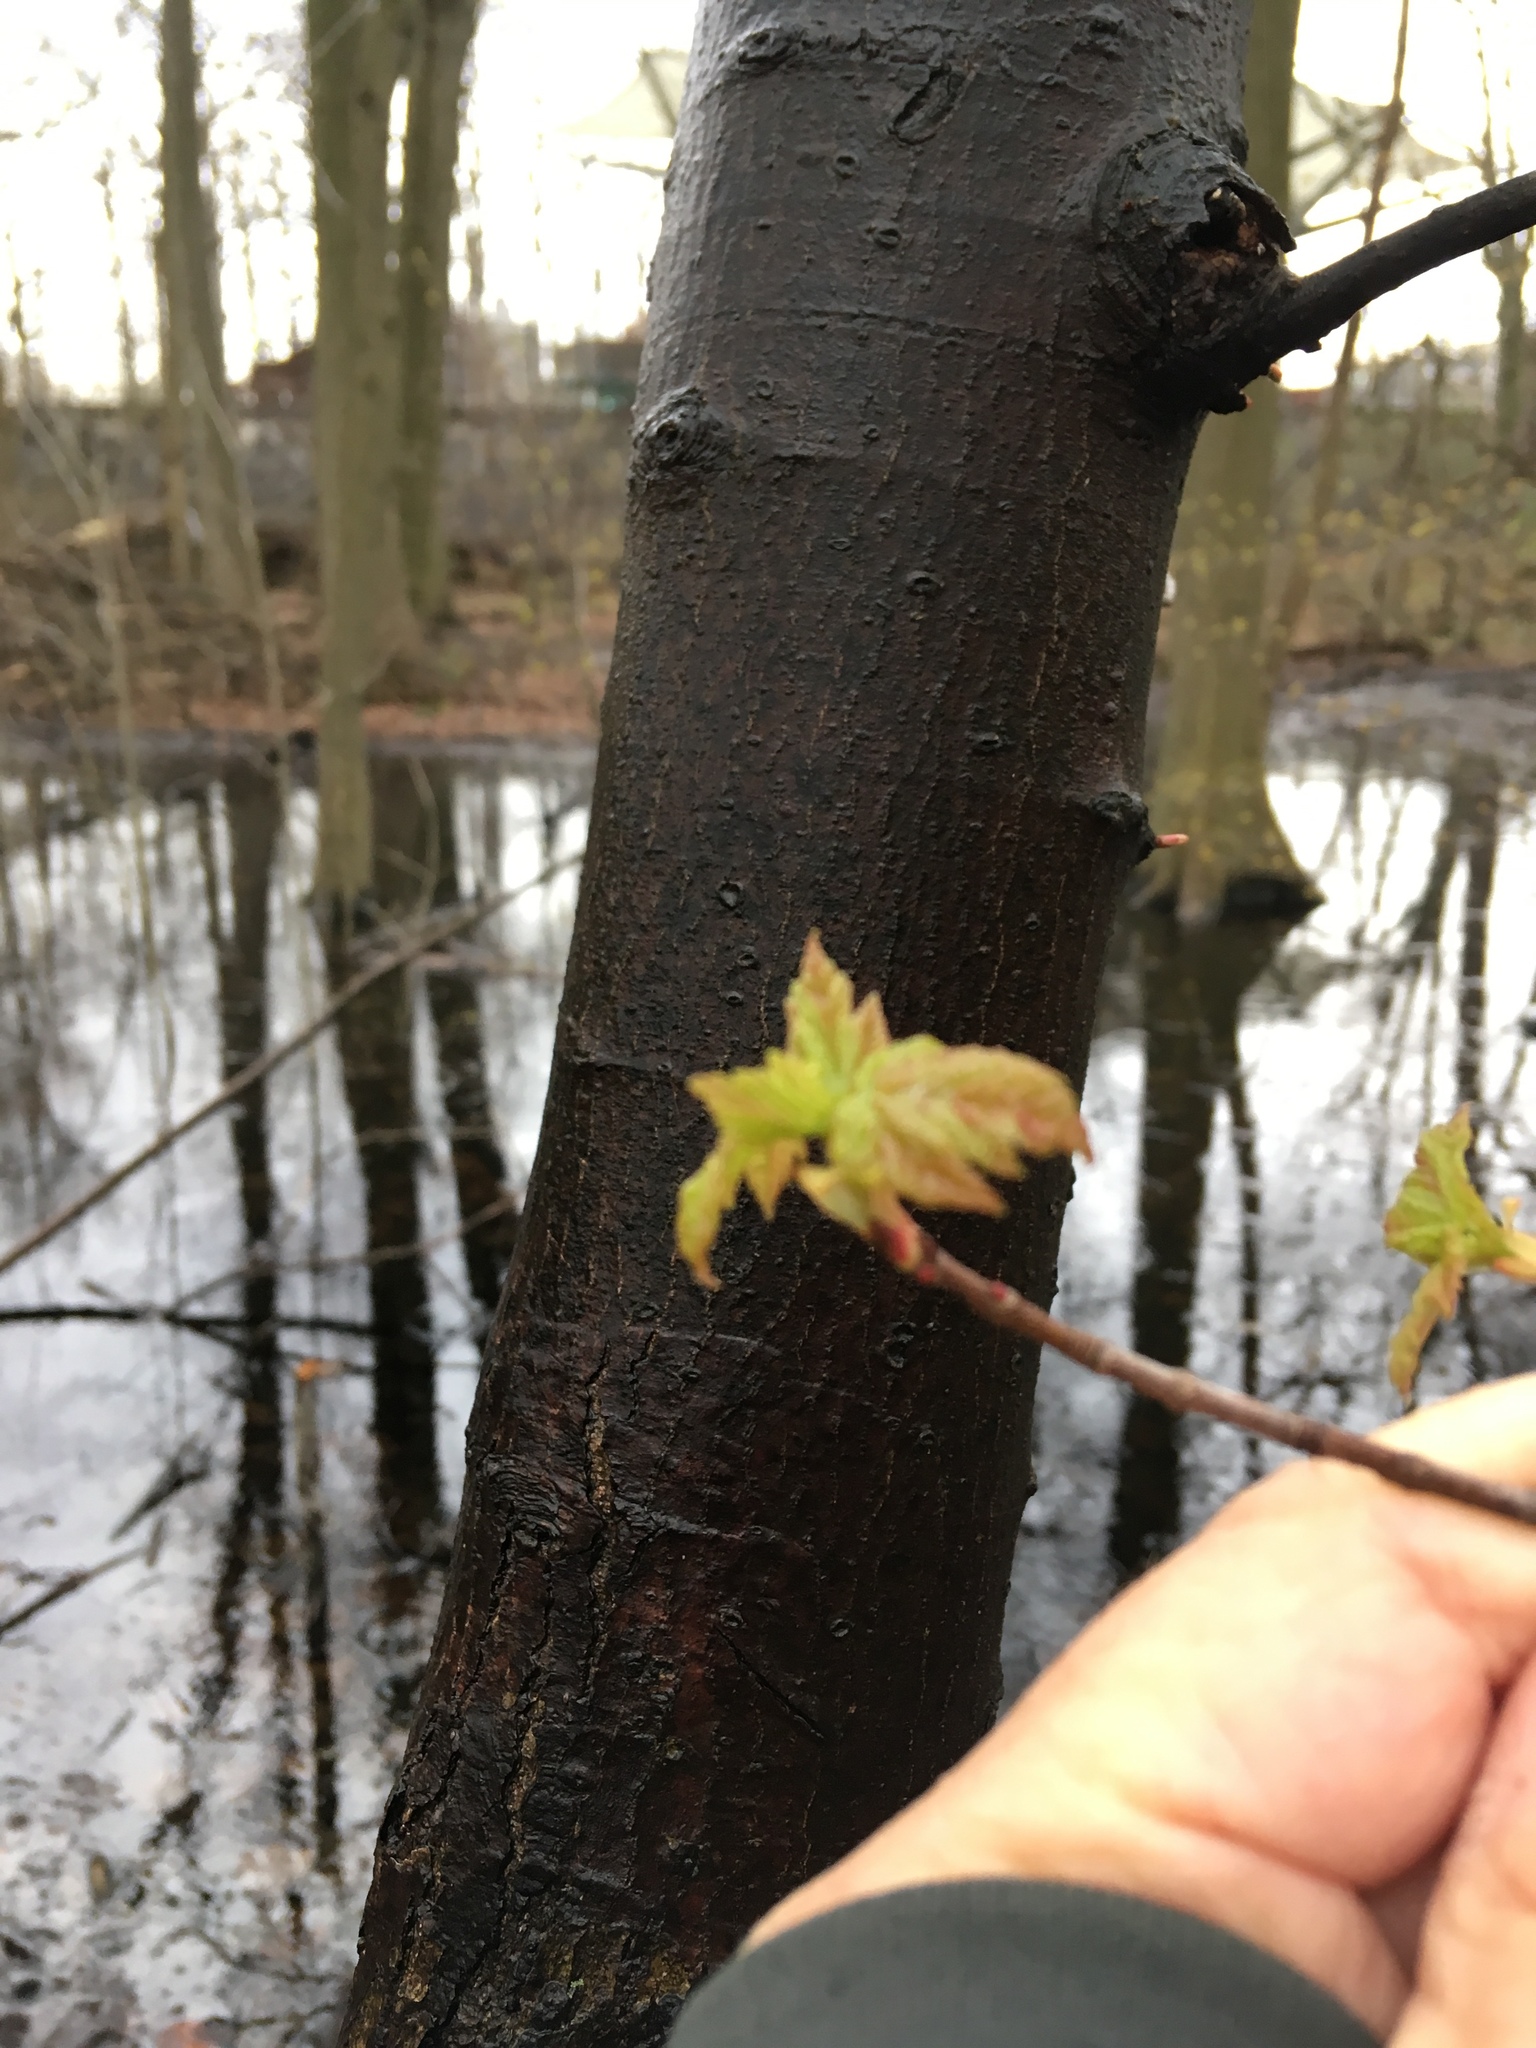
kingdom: Plantae
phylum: Tracheophyta
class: Magnoliopsida
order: Sapindales
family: Sapindaceae
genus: Acer
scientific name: Acer rubrum
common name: Red maple
